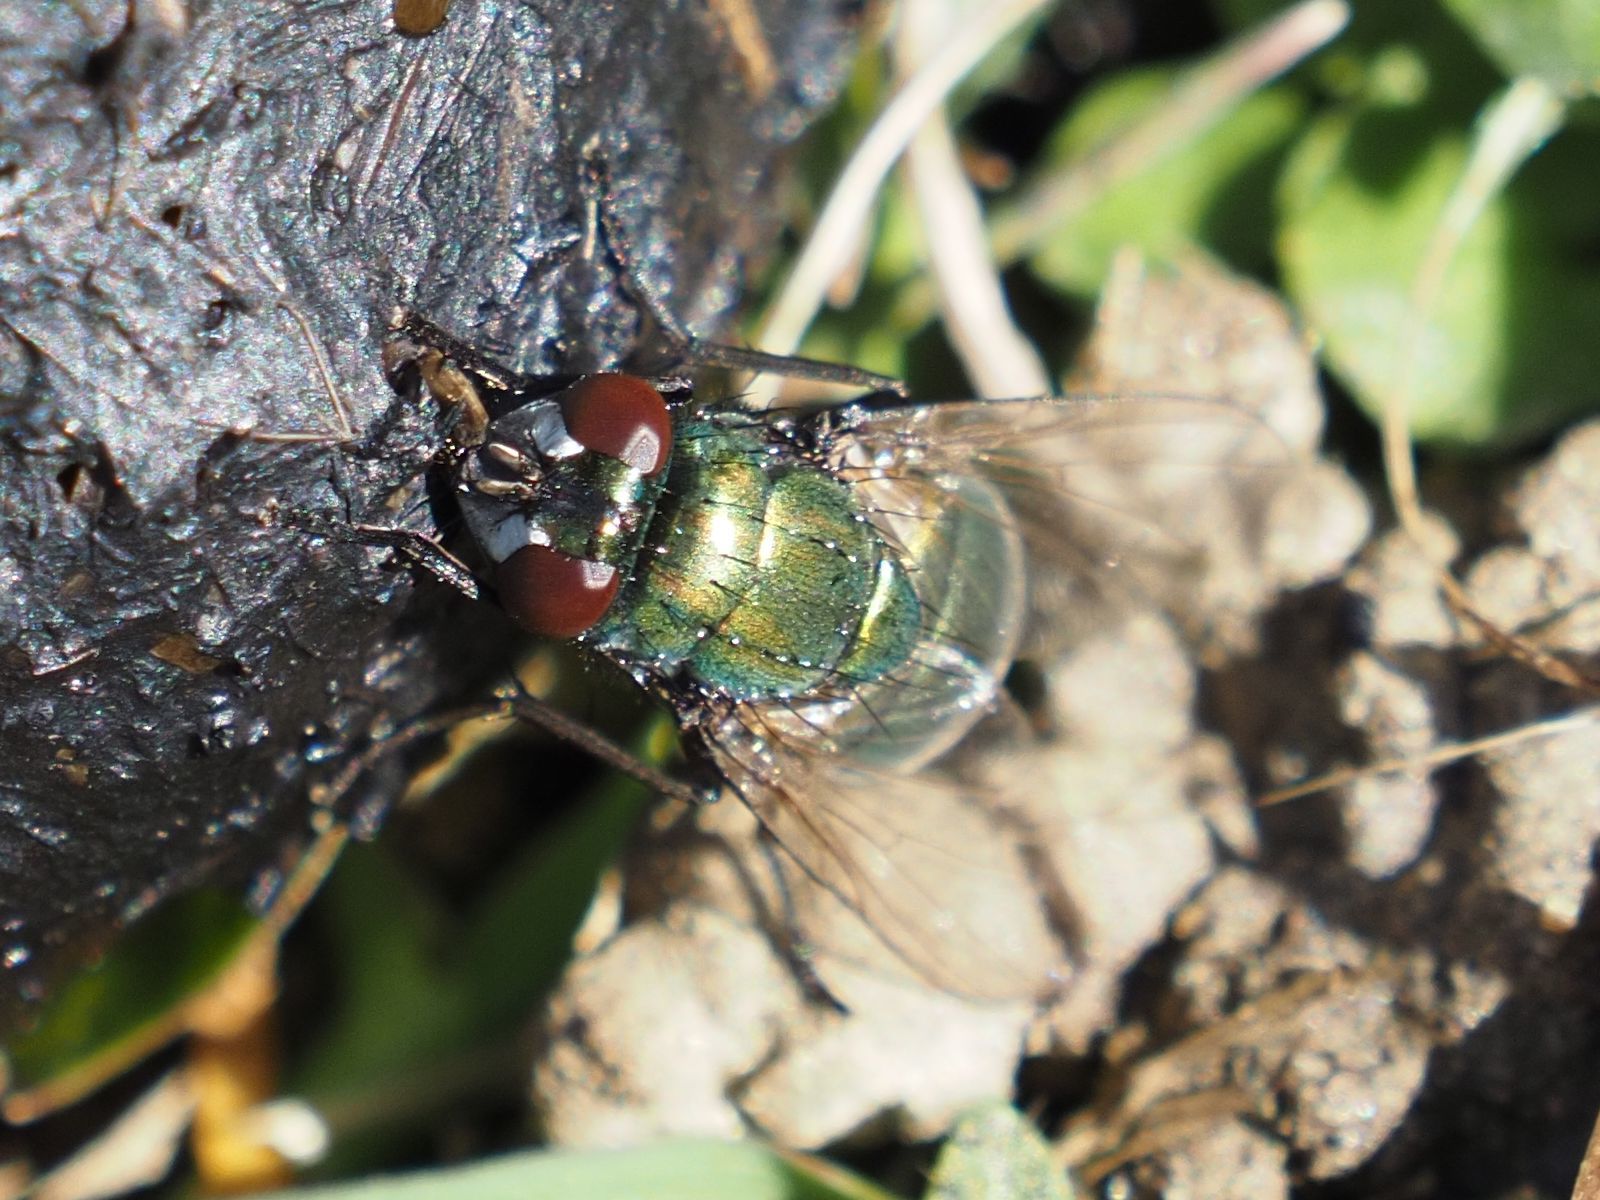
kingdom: Animalia
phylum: Arthropoda
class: Insecta
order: Diptera
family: Muscidae
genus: Neomyia
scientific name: Neomyia cornicina
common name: House fly
